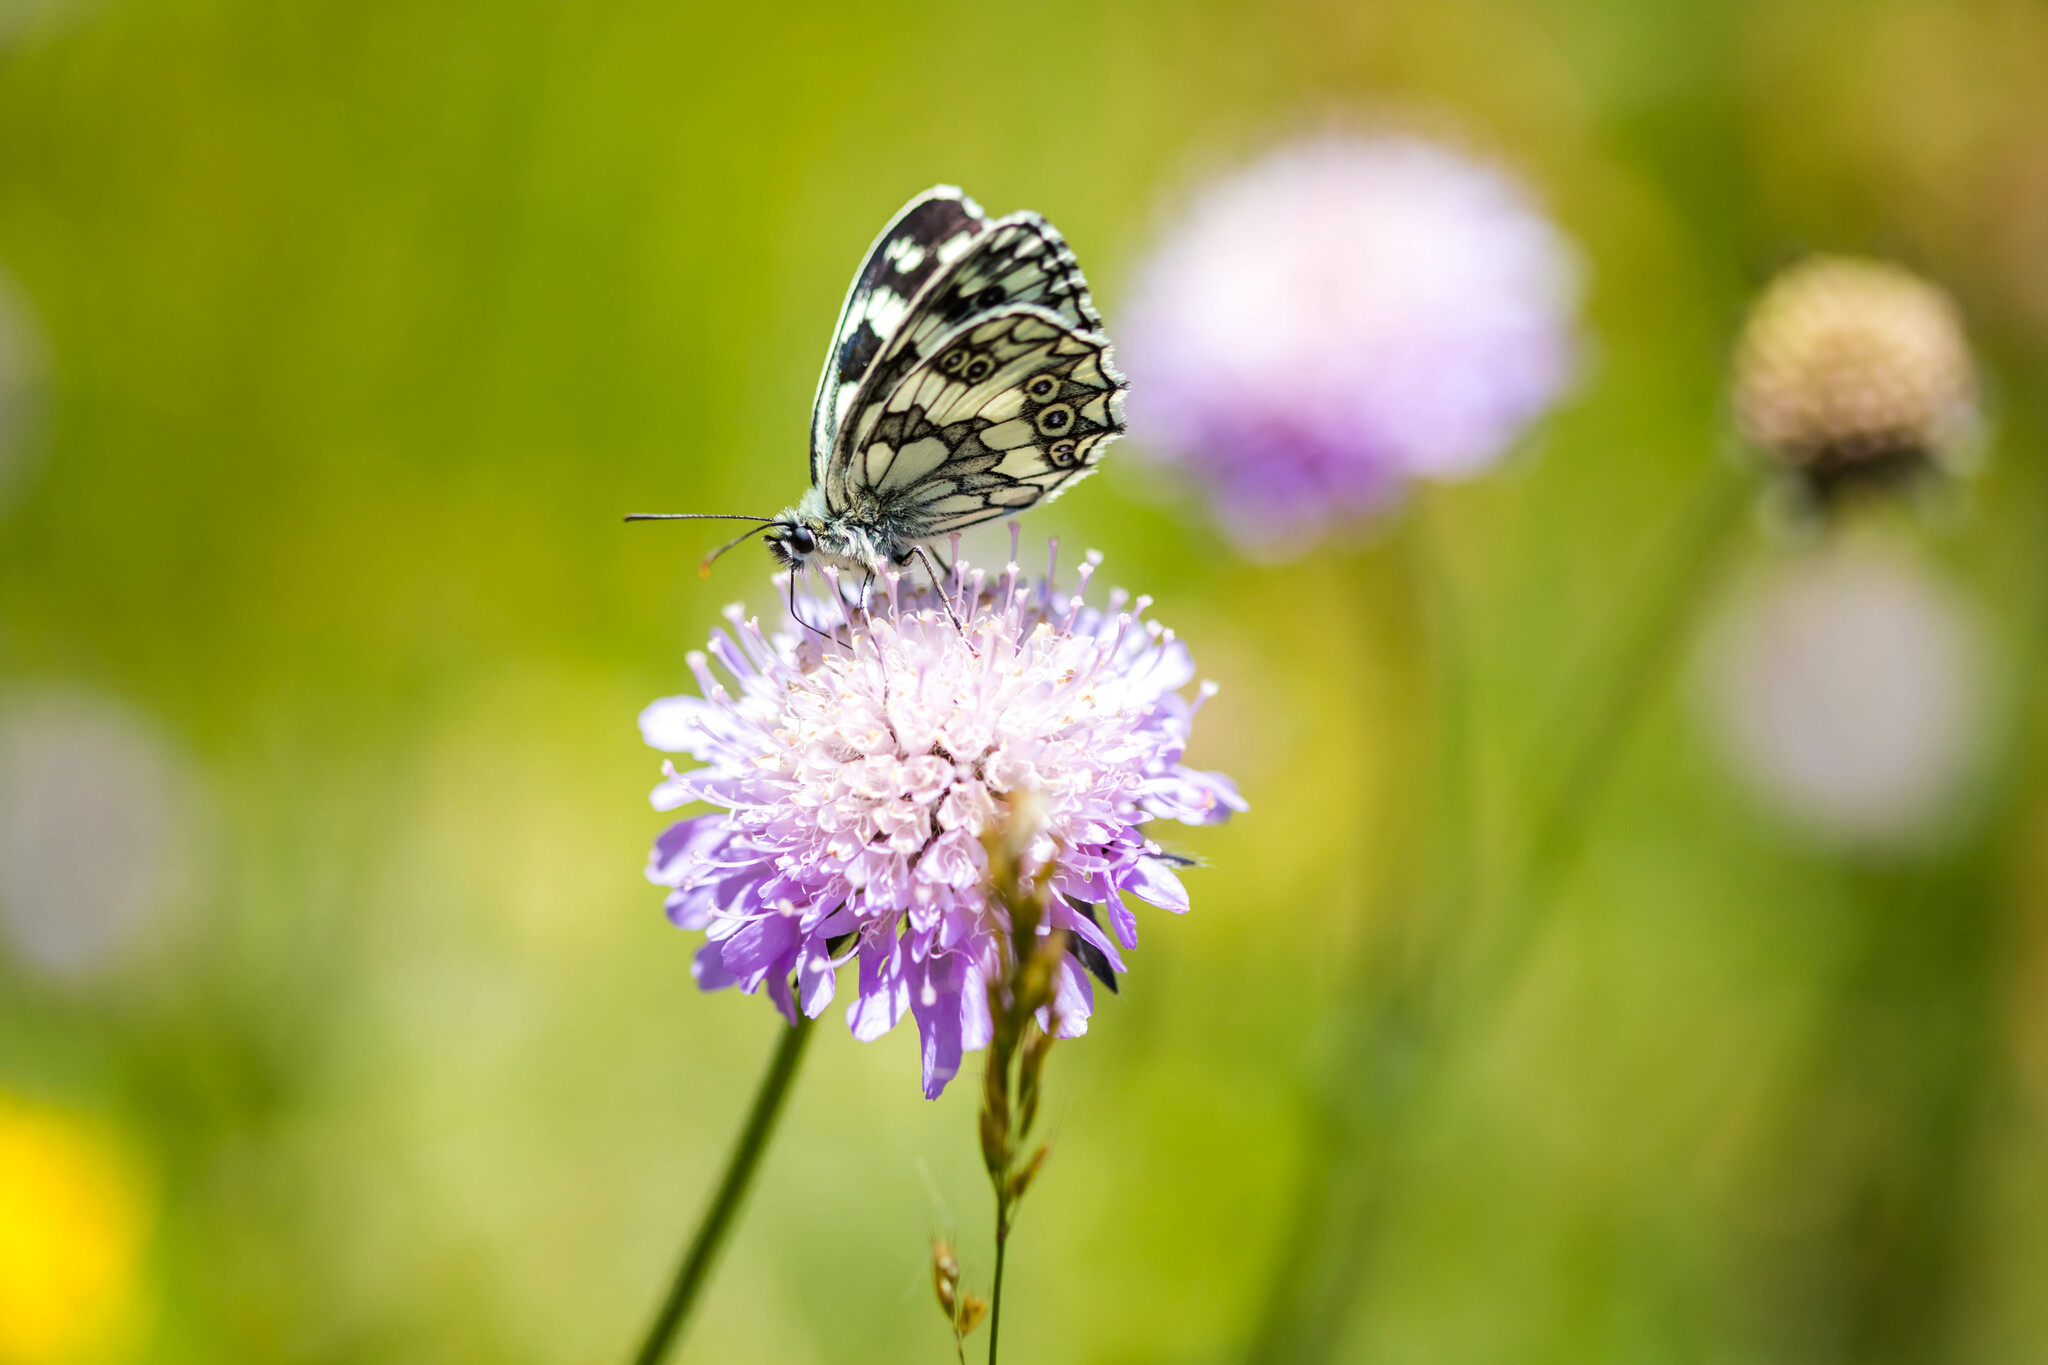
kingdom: Animalia
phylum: Arthropoda
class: Insecta
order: Lepidoptera
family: Nymphalidae
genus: Melanargia
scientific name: Melanargia galathea
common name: Marbled white
